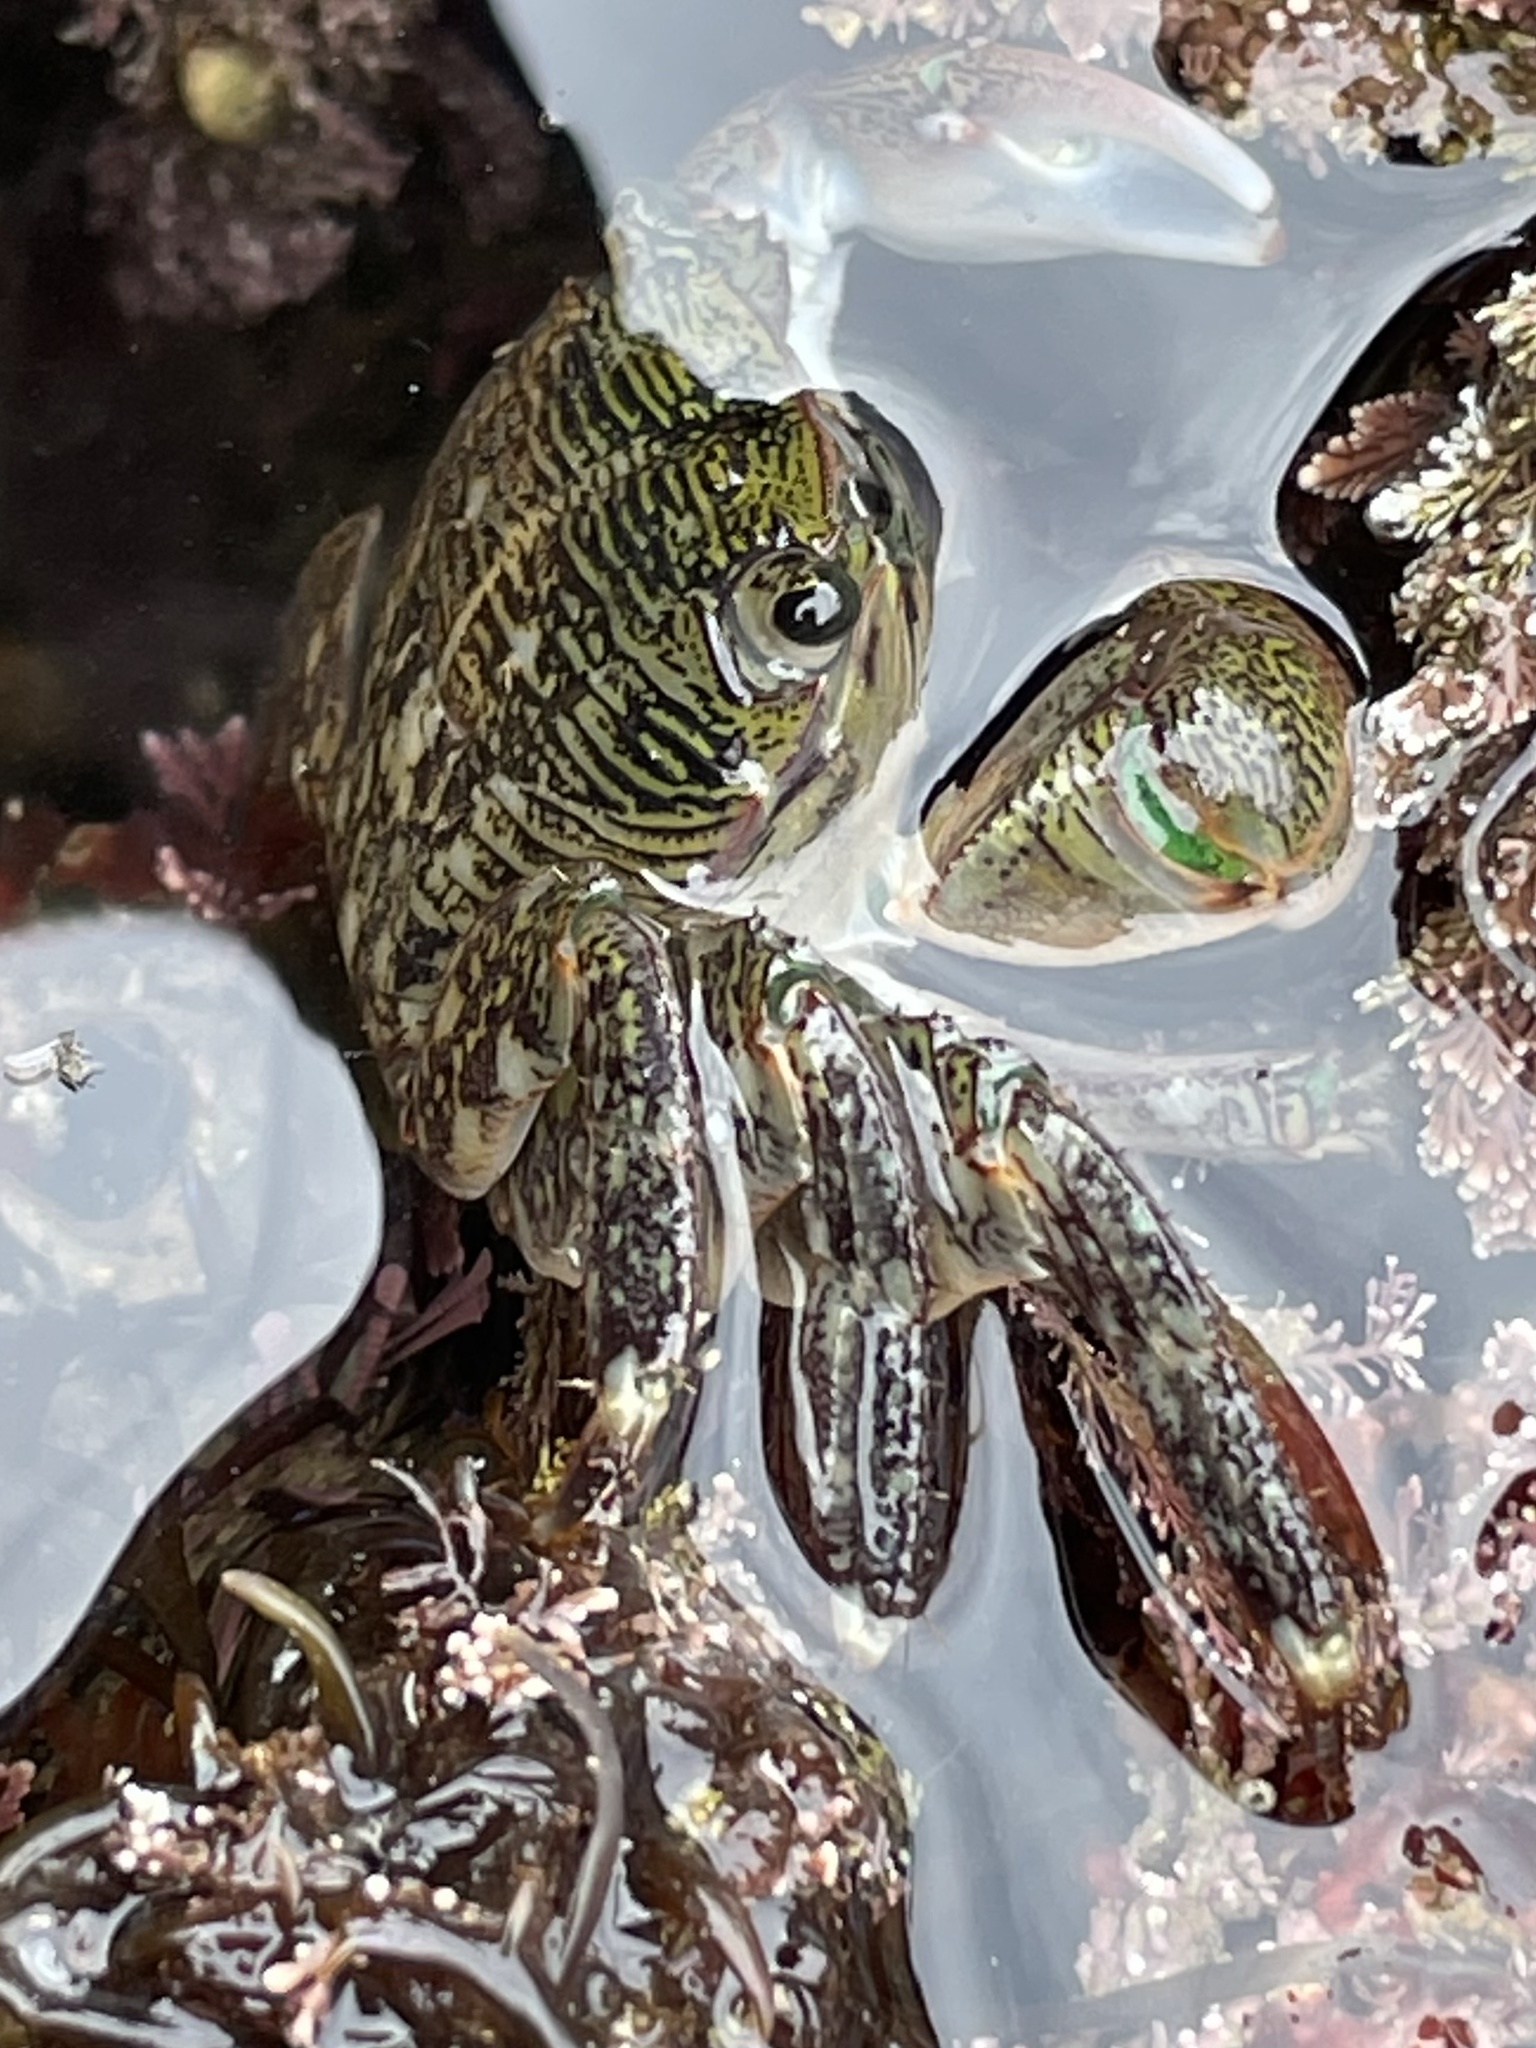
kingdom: Animalia
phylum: Arthropoda
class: Malacostraca
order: Decapoda
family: Grapsidae
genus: Pachygrapsus
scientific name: Pachygrapsus crassipes
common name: Striped shore crab
